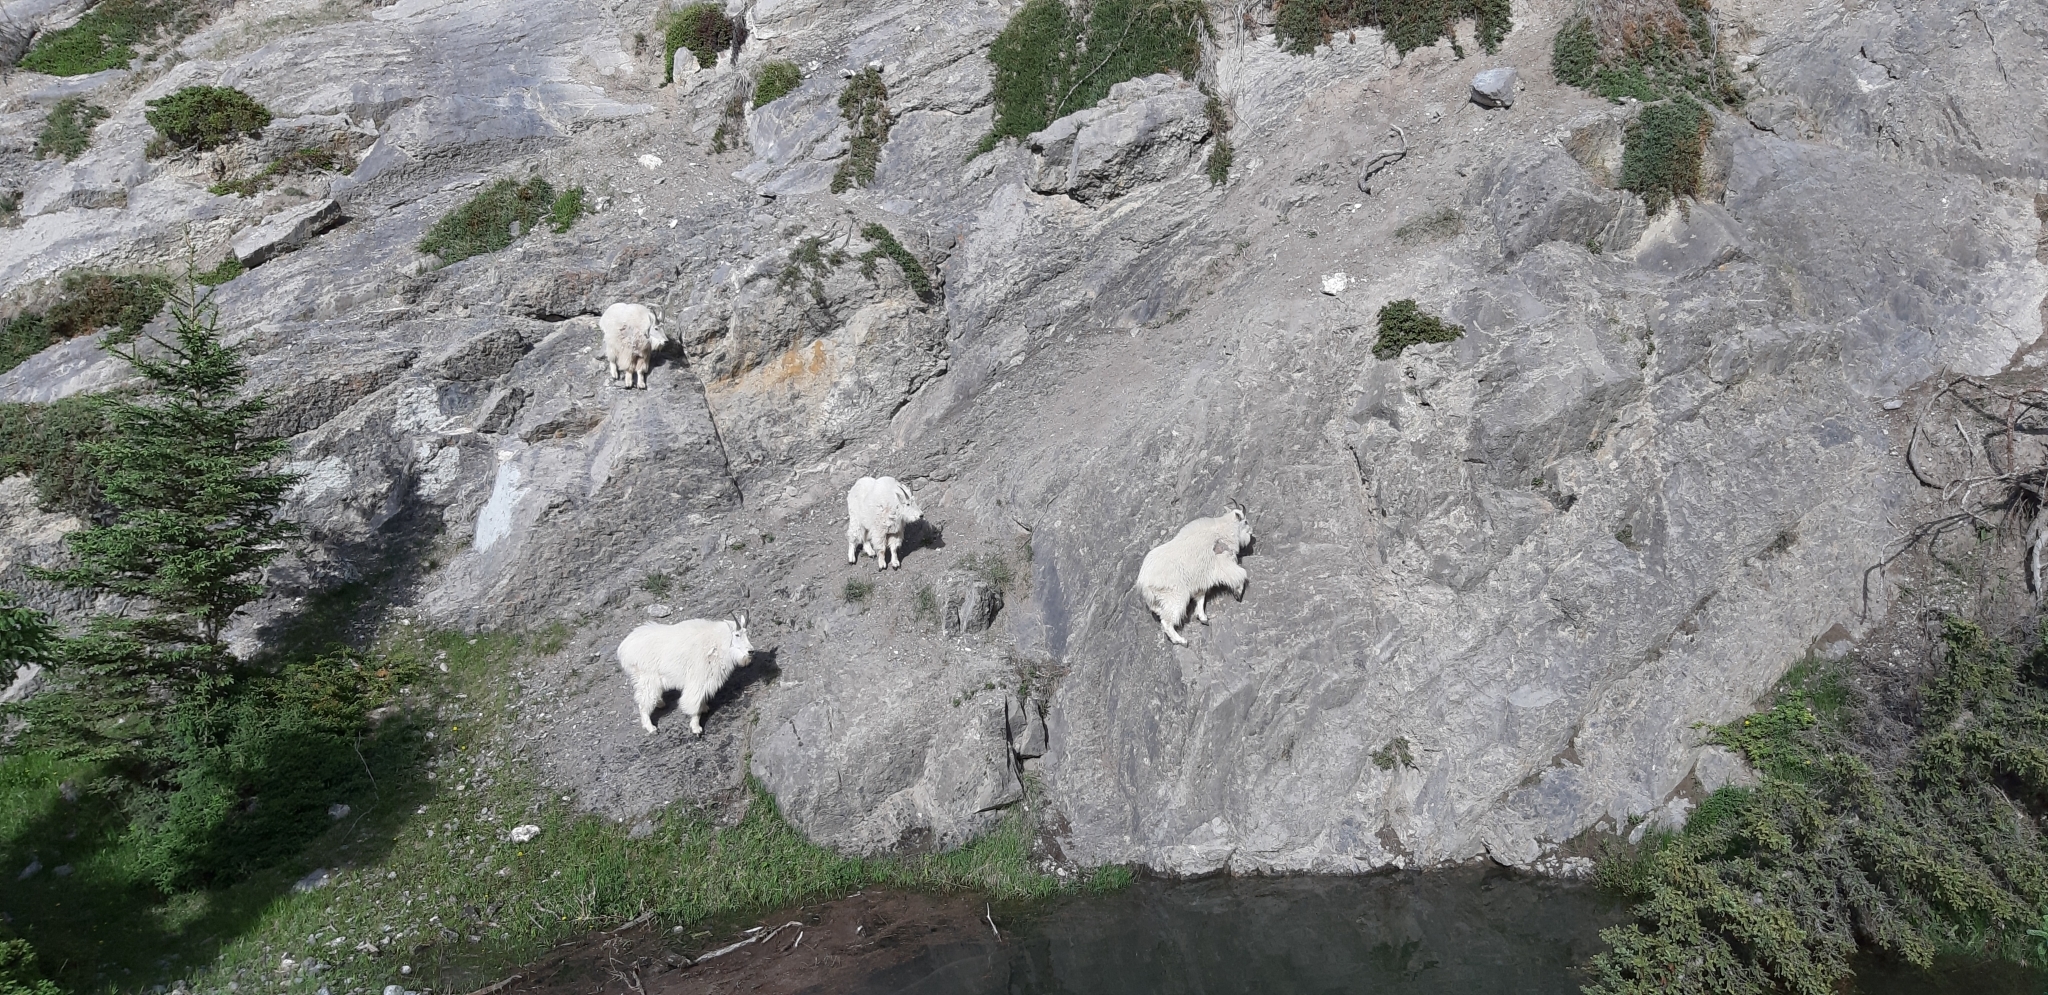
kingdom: Animalia
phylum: Chordata
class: Mammalia
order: Artiodactyla
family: Bovidae
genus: Oreamnos
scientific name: Oreamnos americanus
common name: Mountain goat
